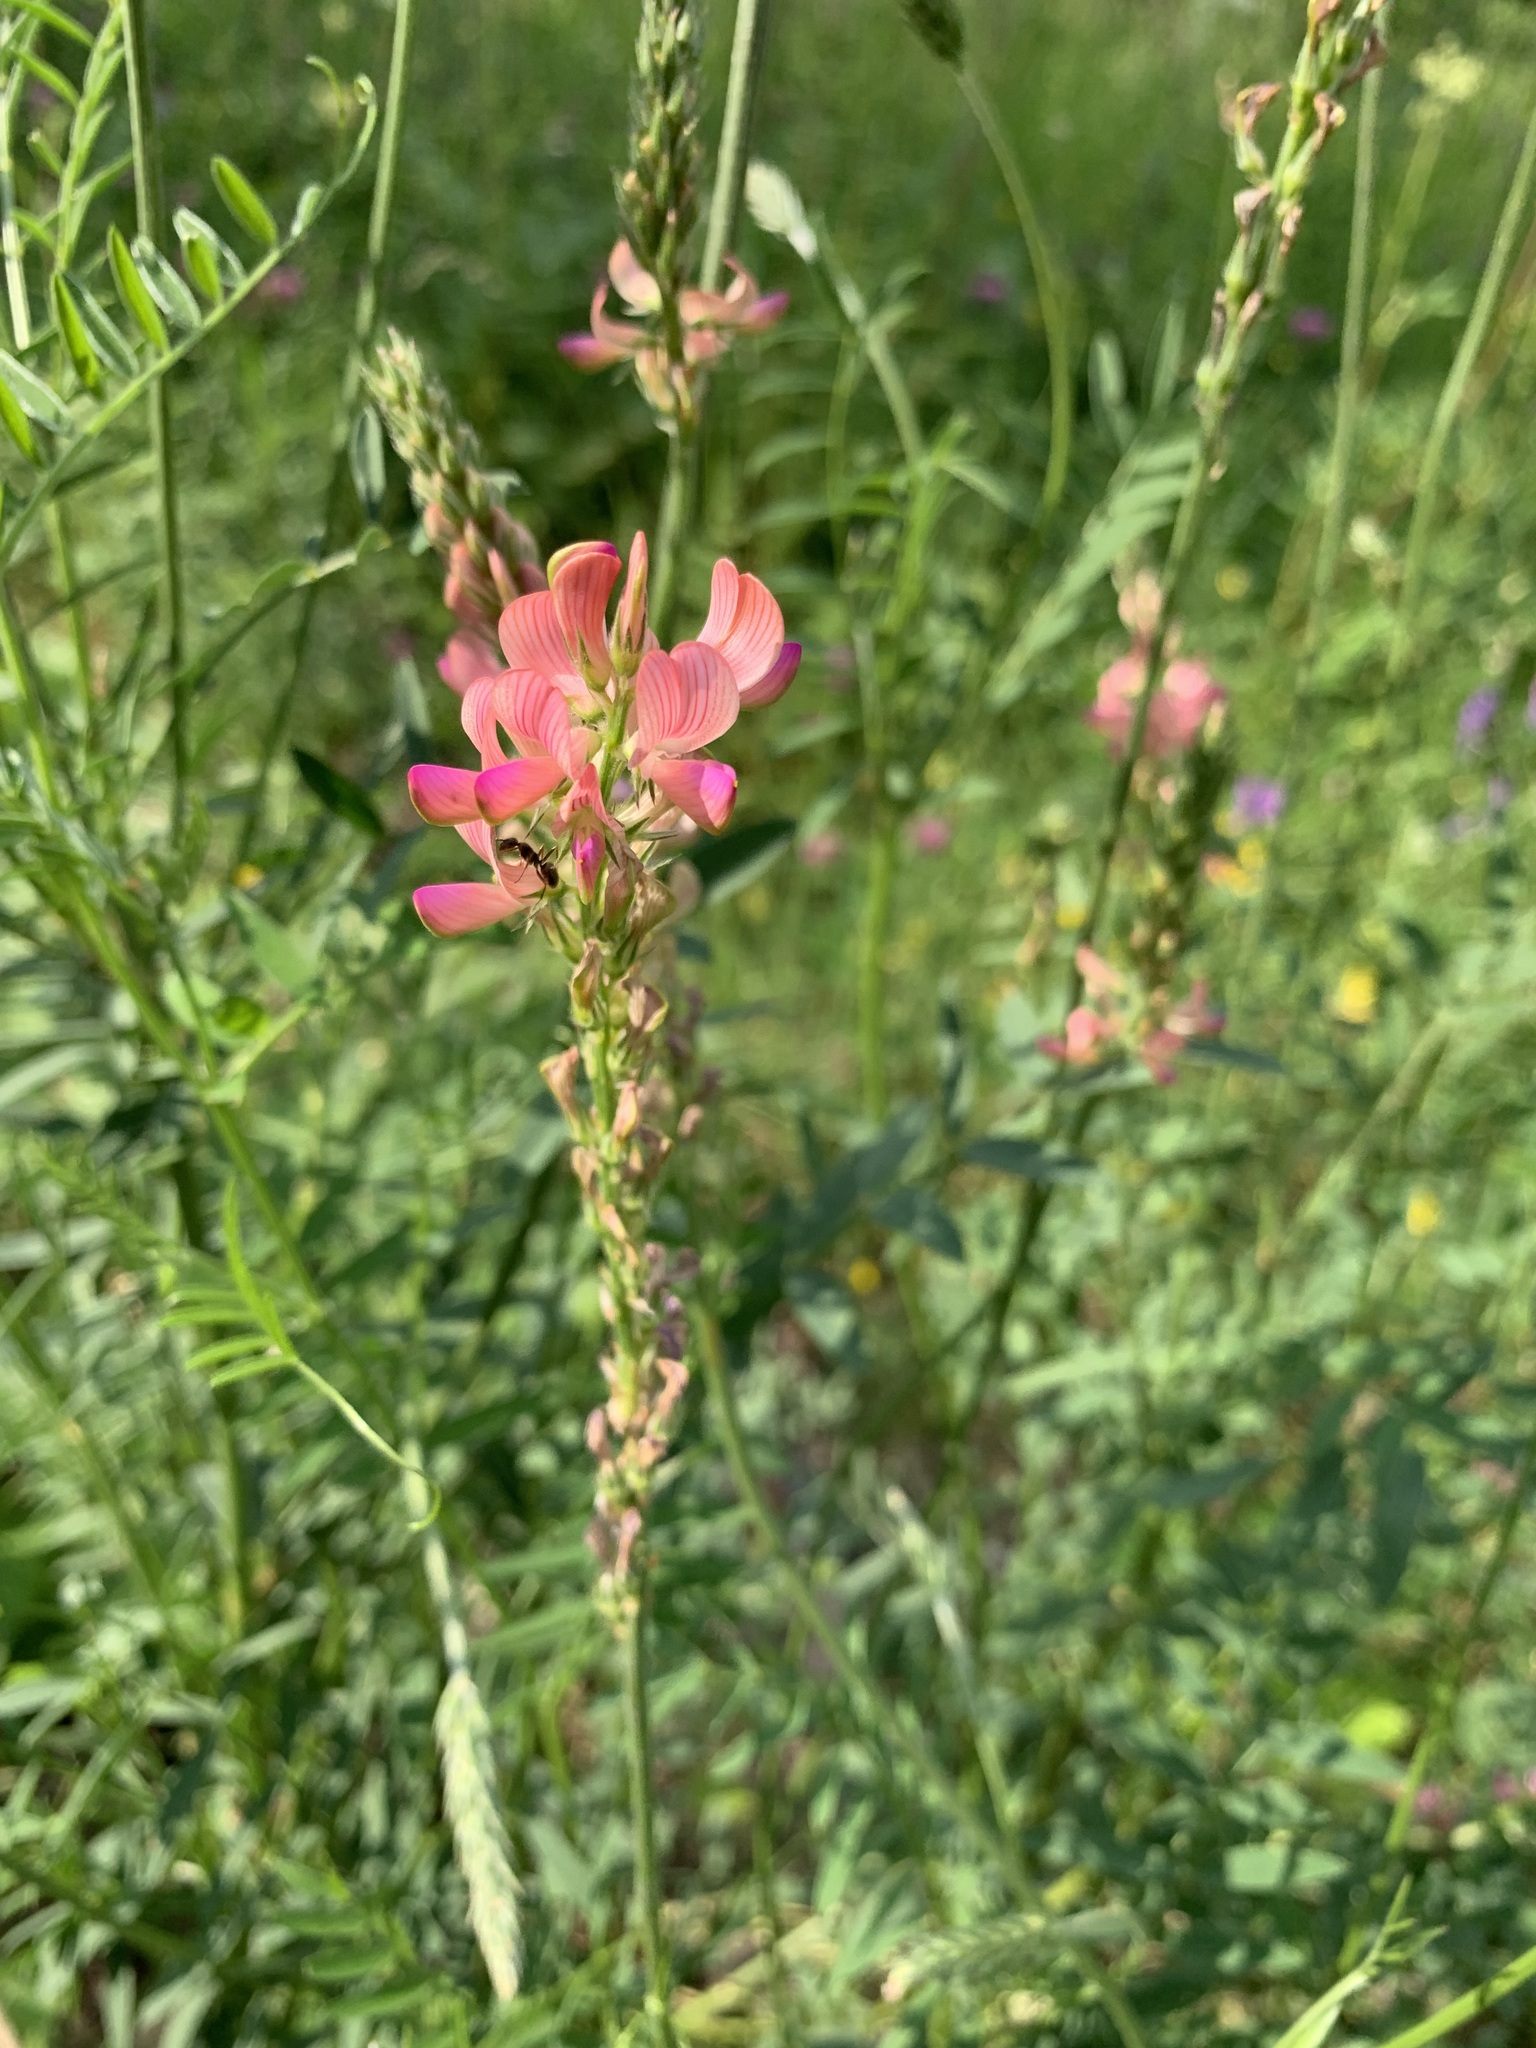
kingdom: Plantae
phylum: Tracheophyta
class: Magnoliopsida
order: Fabales
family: Fabaceae
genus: Onobrychis
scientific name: Onobrychis viciifolia
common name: Sainfoin
